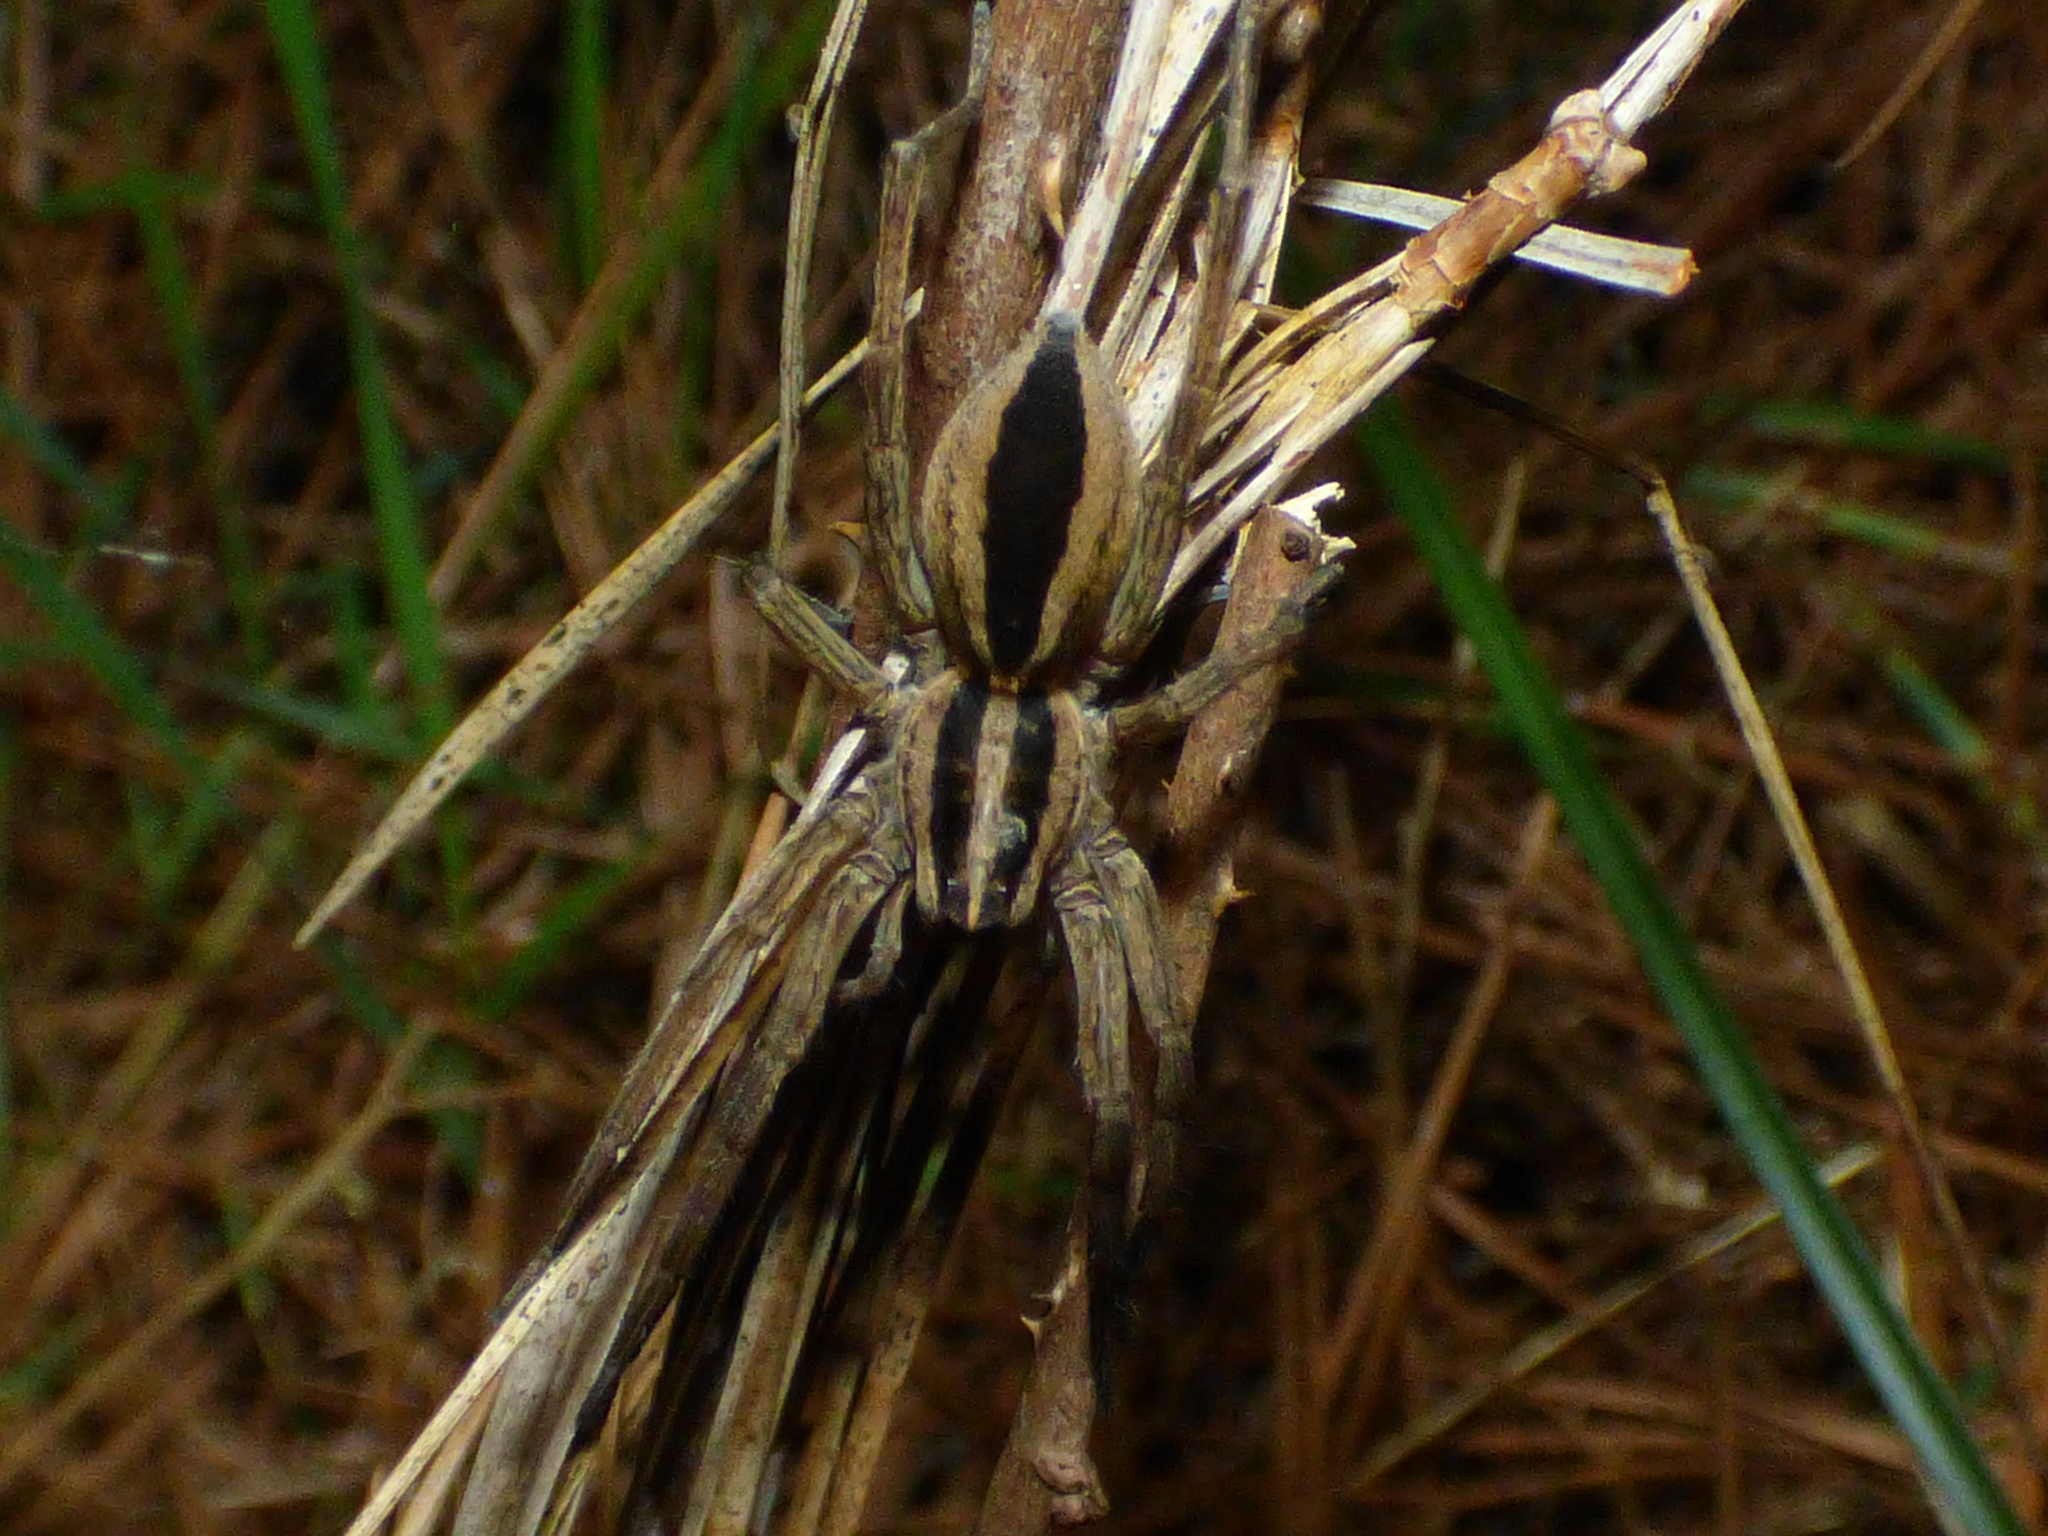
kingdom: Animalia
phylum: Arthropoda
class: Arachnida
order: Araneae
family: Lycosidae
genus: Rabidosa
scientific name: Rabidosa punctulata
